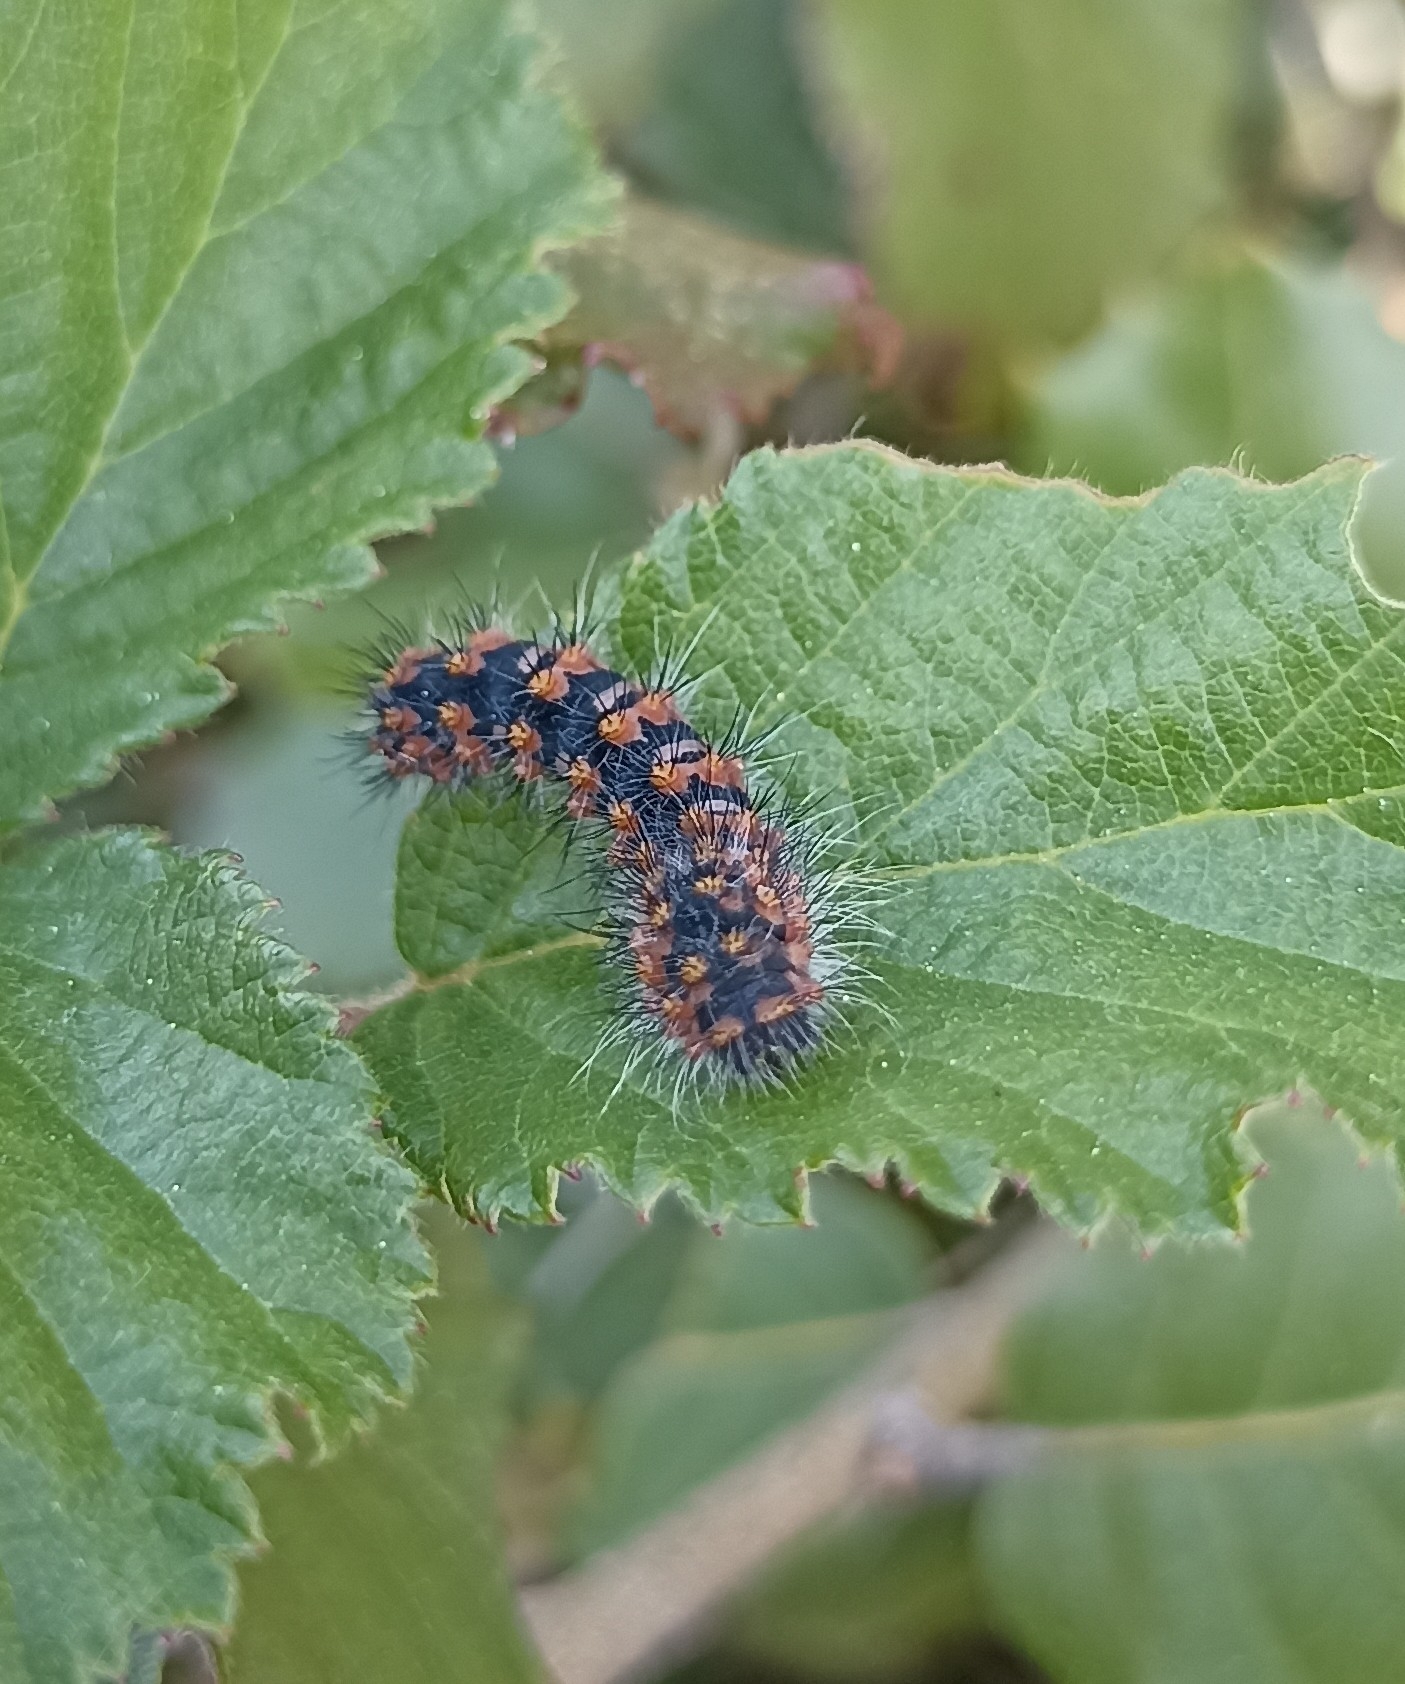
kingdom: Animalia
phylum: Arthropoda
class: Insecta
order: Lepidoptera
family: Saturniidae
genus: Saturnia
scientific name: Saturnia pavonia
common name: Emperor moth
